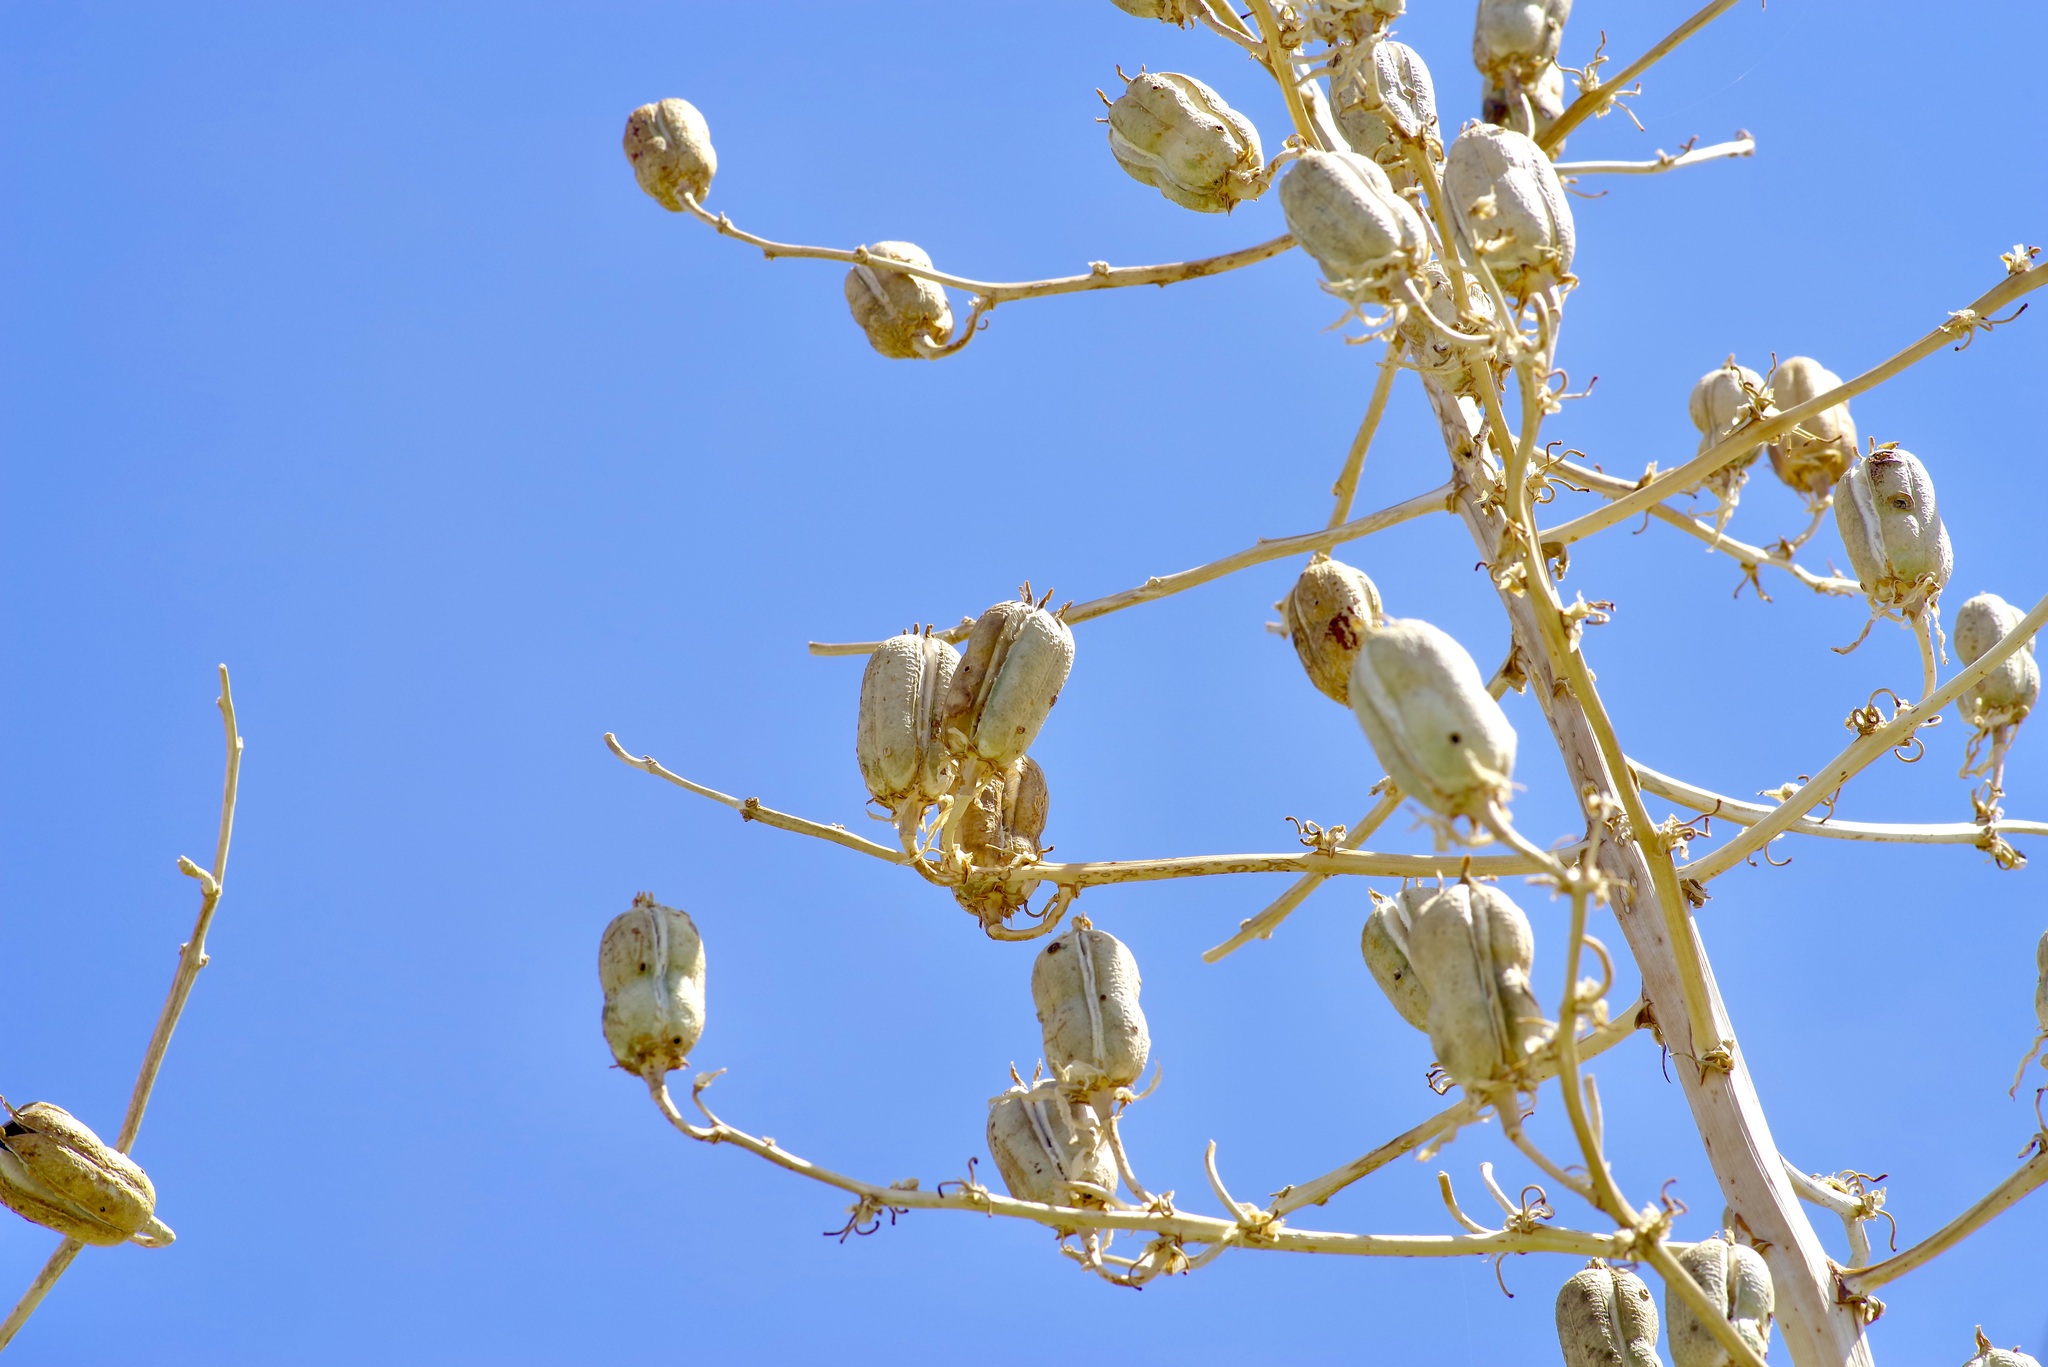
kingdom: Plantae
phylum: Tracheophyta
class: Liliopsida
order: Asparagales
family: Asparagaceae
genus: Yucca
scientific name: Yucca elata
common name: Palmella
